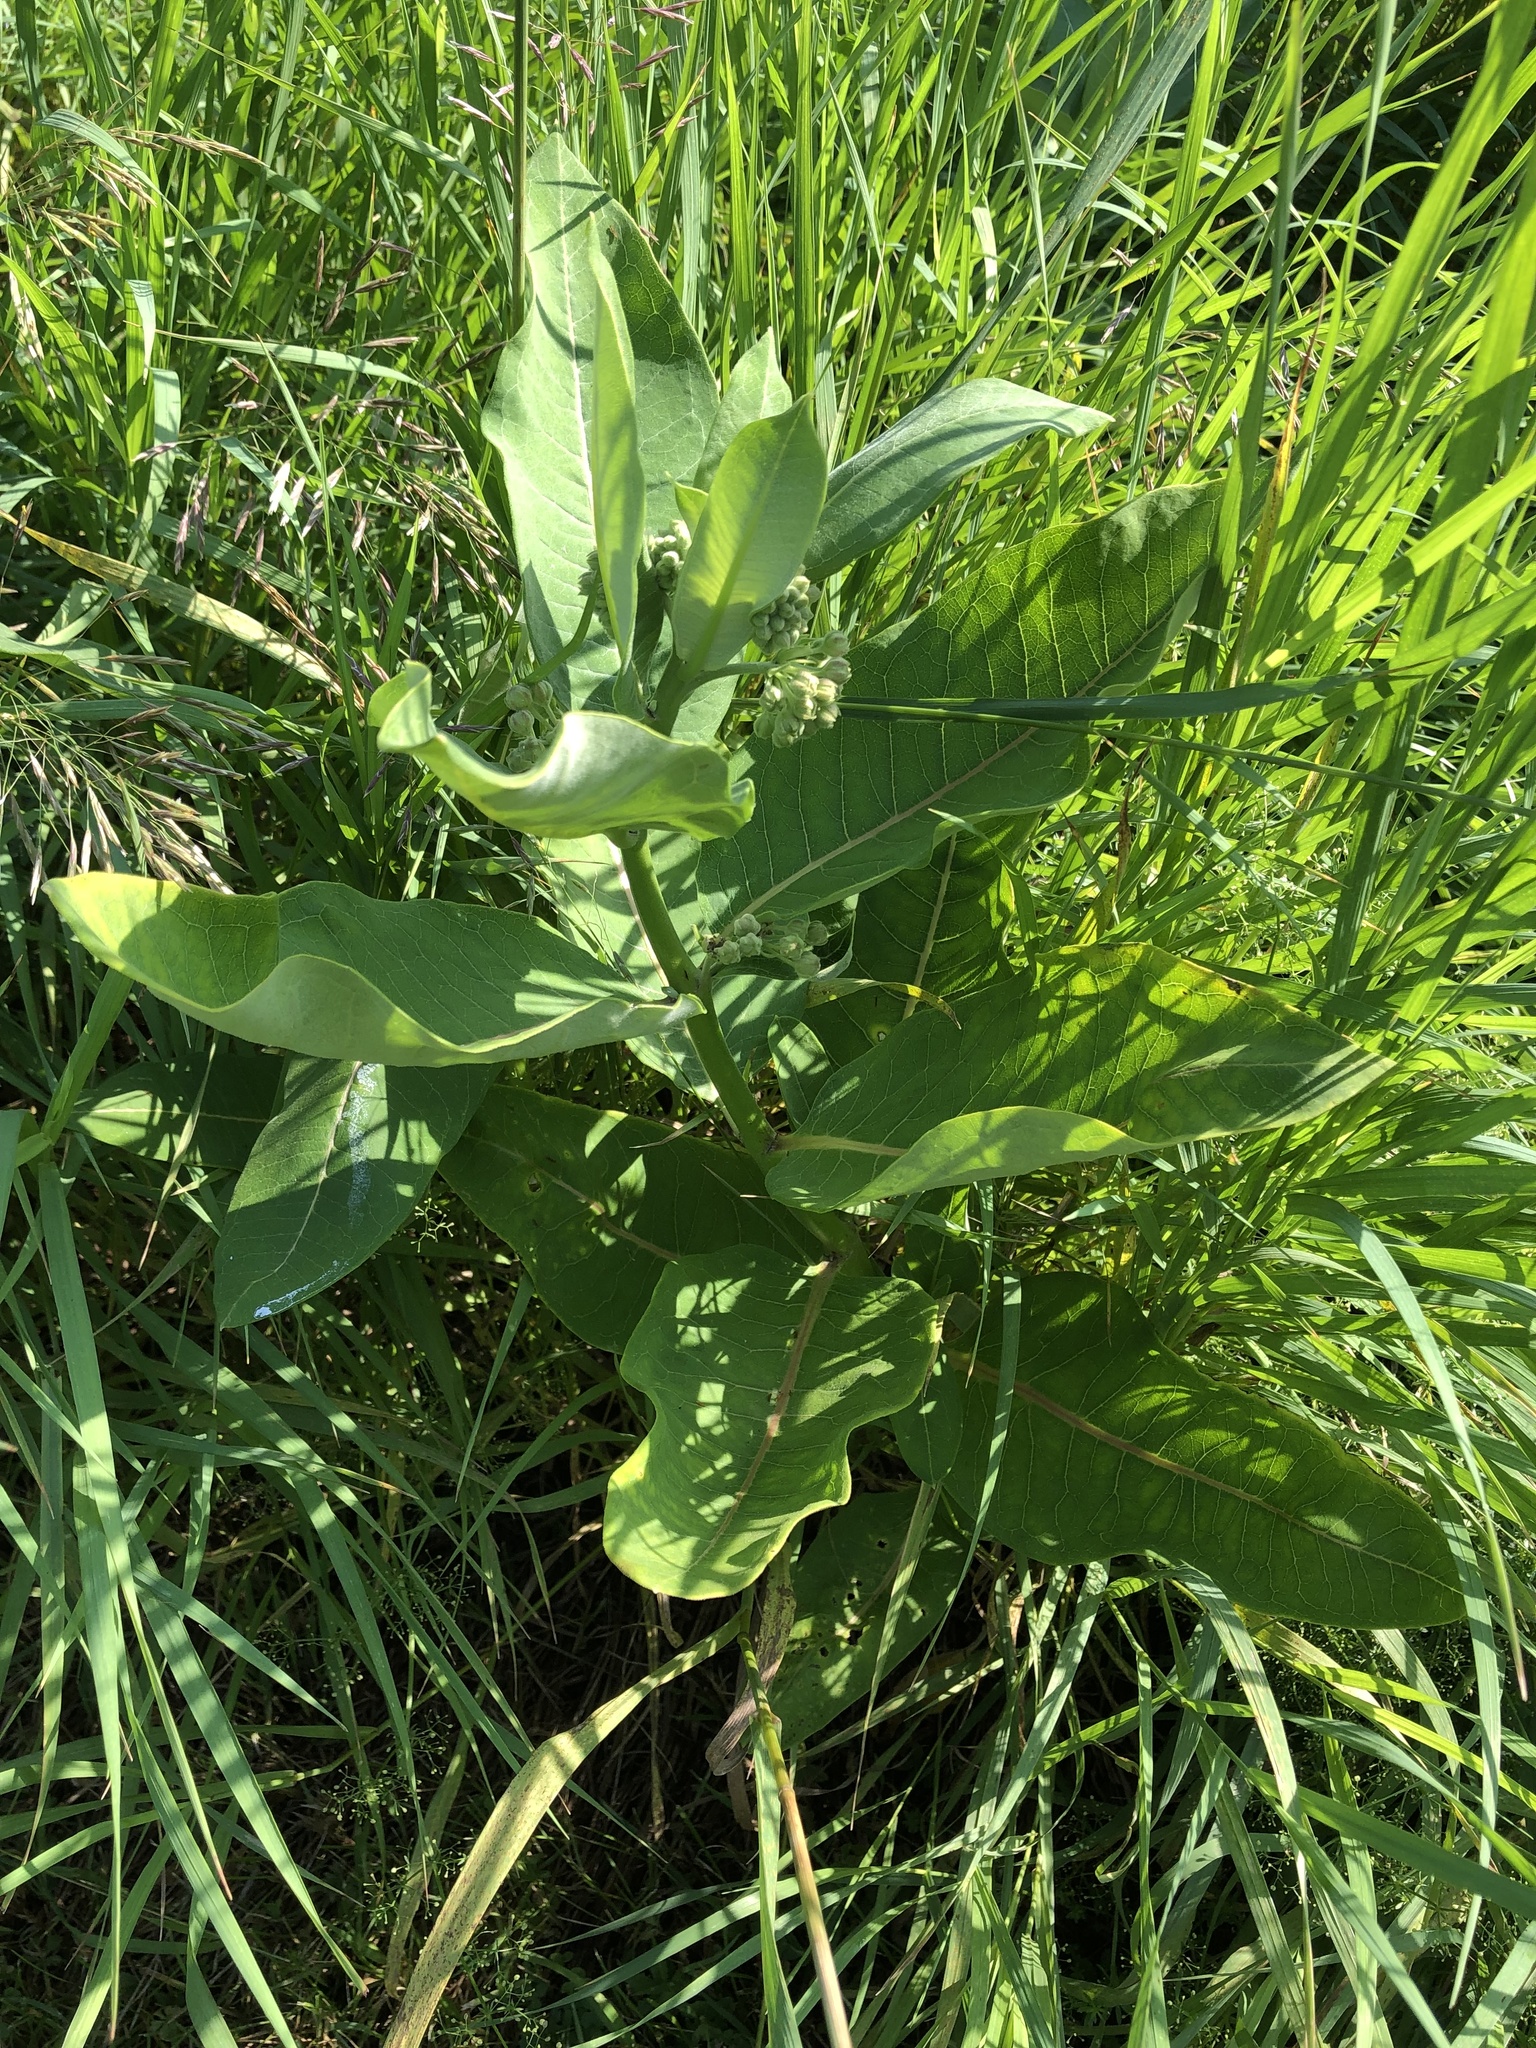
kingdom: Plantae
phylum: Tracheophyta
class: Magnoliopsida
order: Gentianales
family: Apocynaceae
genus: Asclepias
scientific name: Asclepias syriaca
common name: Common milkweed
